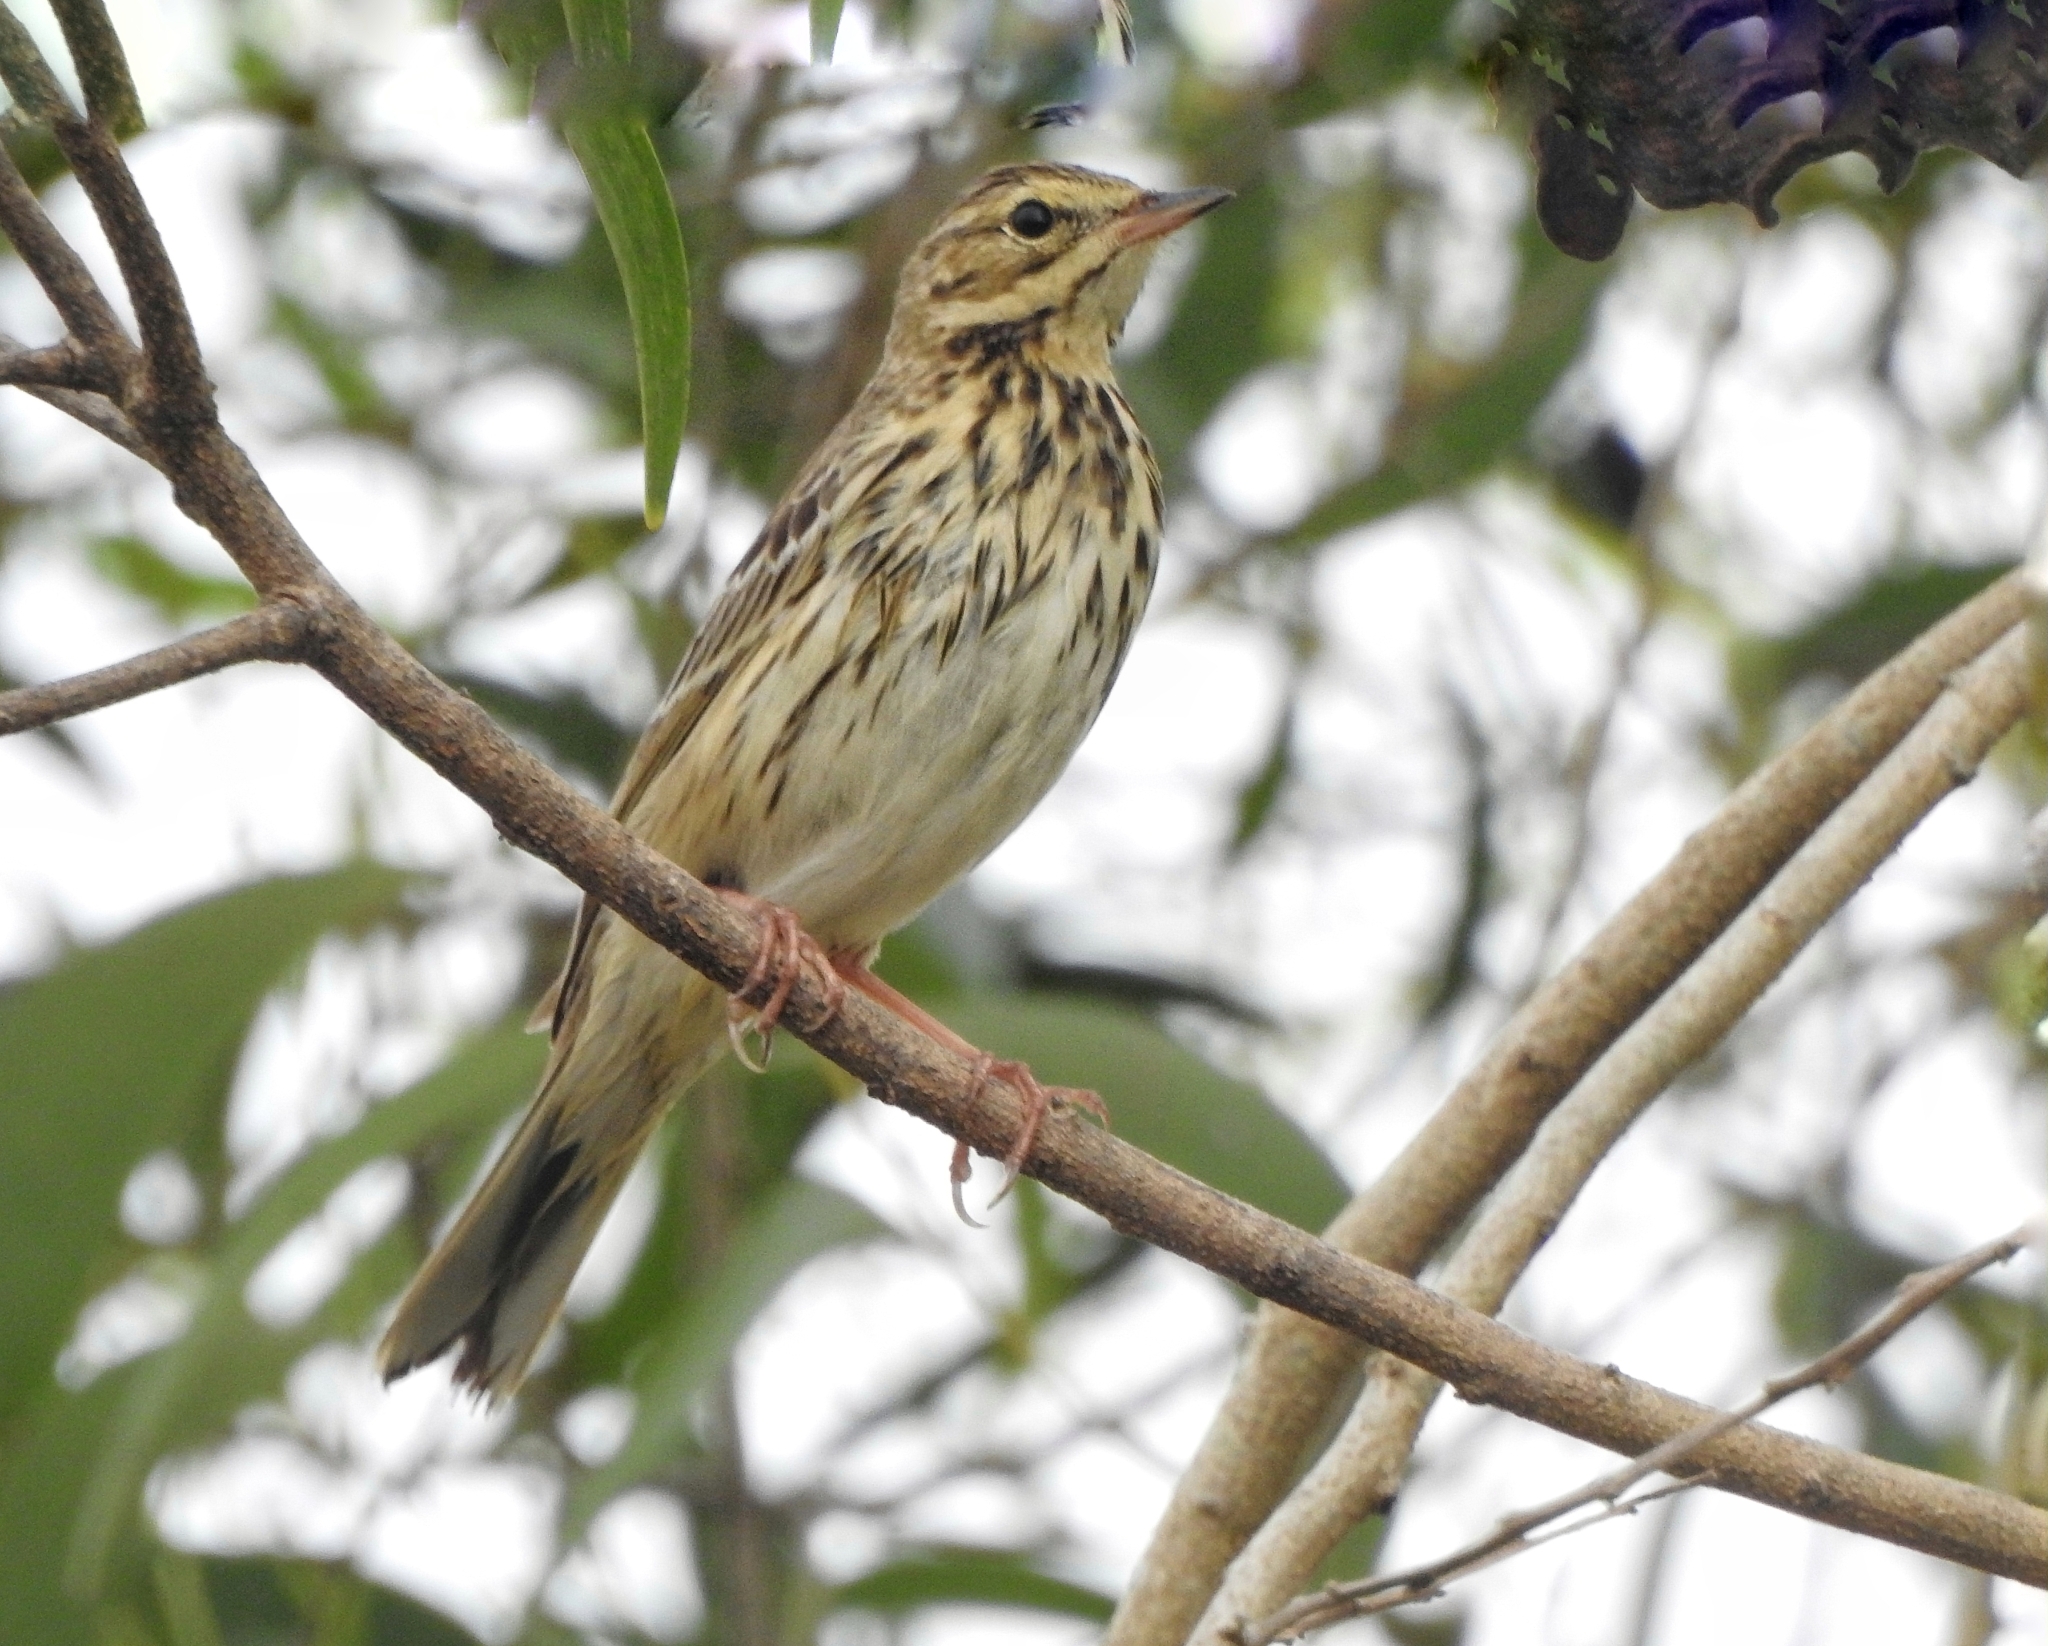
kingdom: Animalia
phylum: Chordata
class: Aves
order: Passeriformes
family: Motacillidae
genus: Anthus
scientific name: Anthus trivialis
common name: Tree pipit
